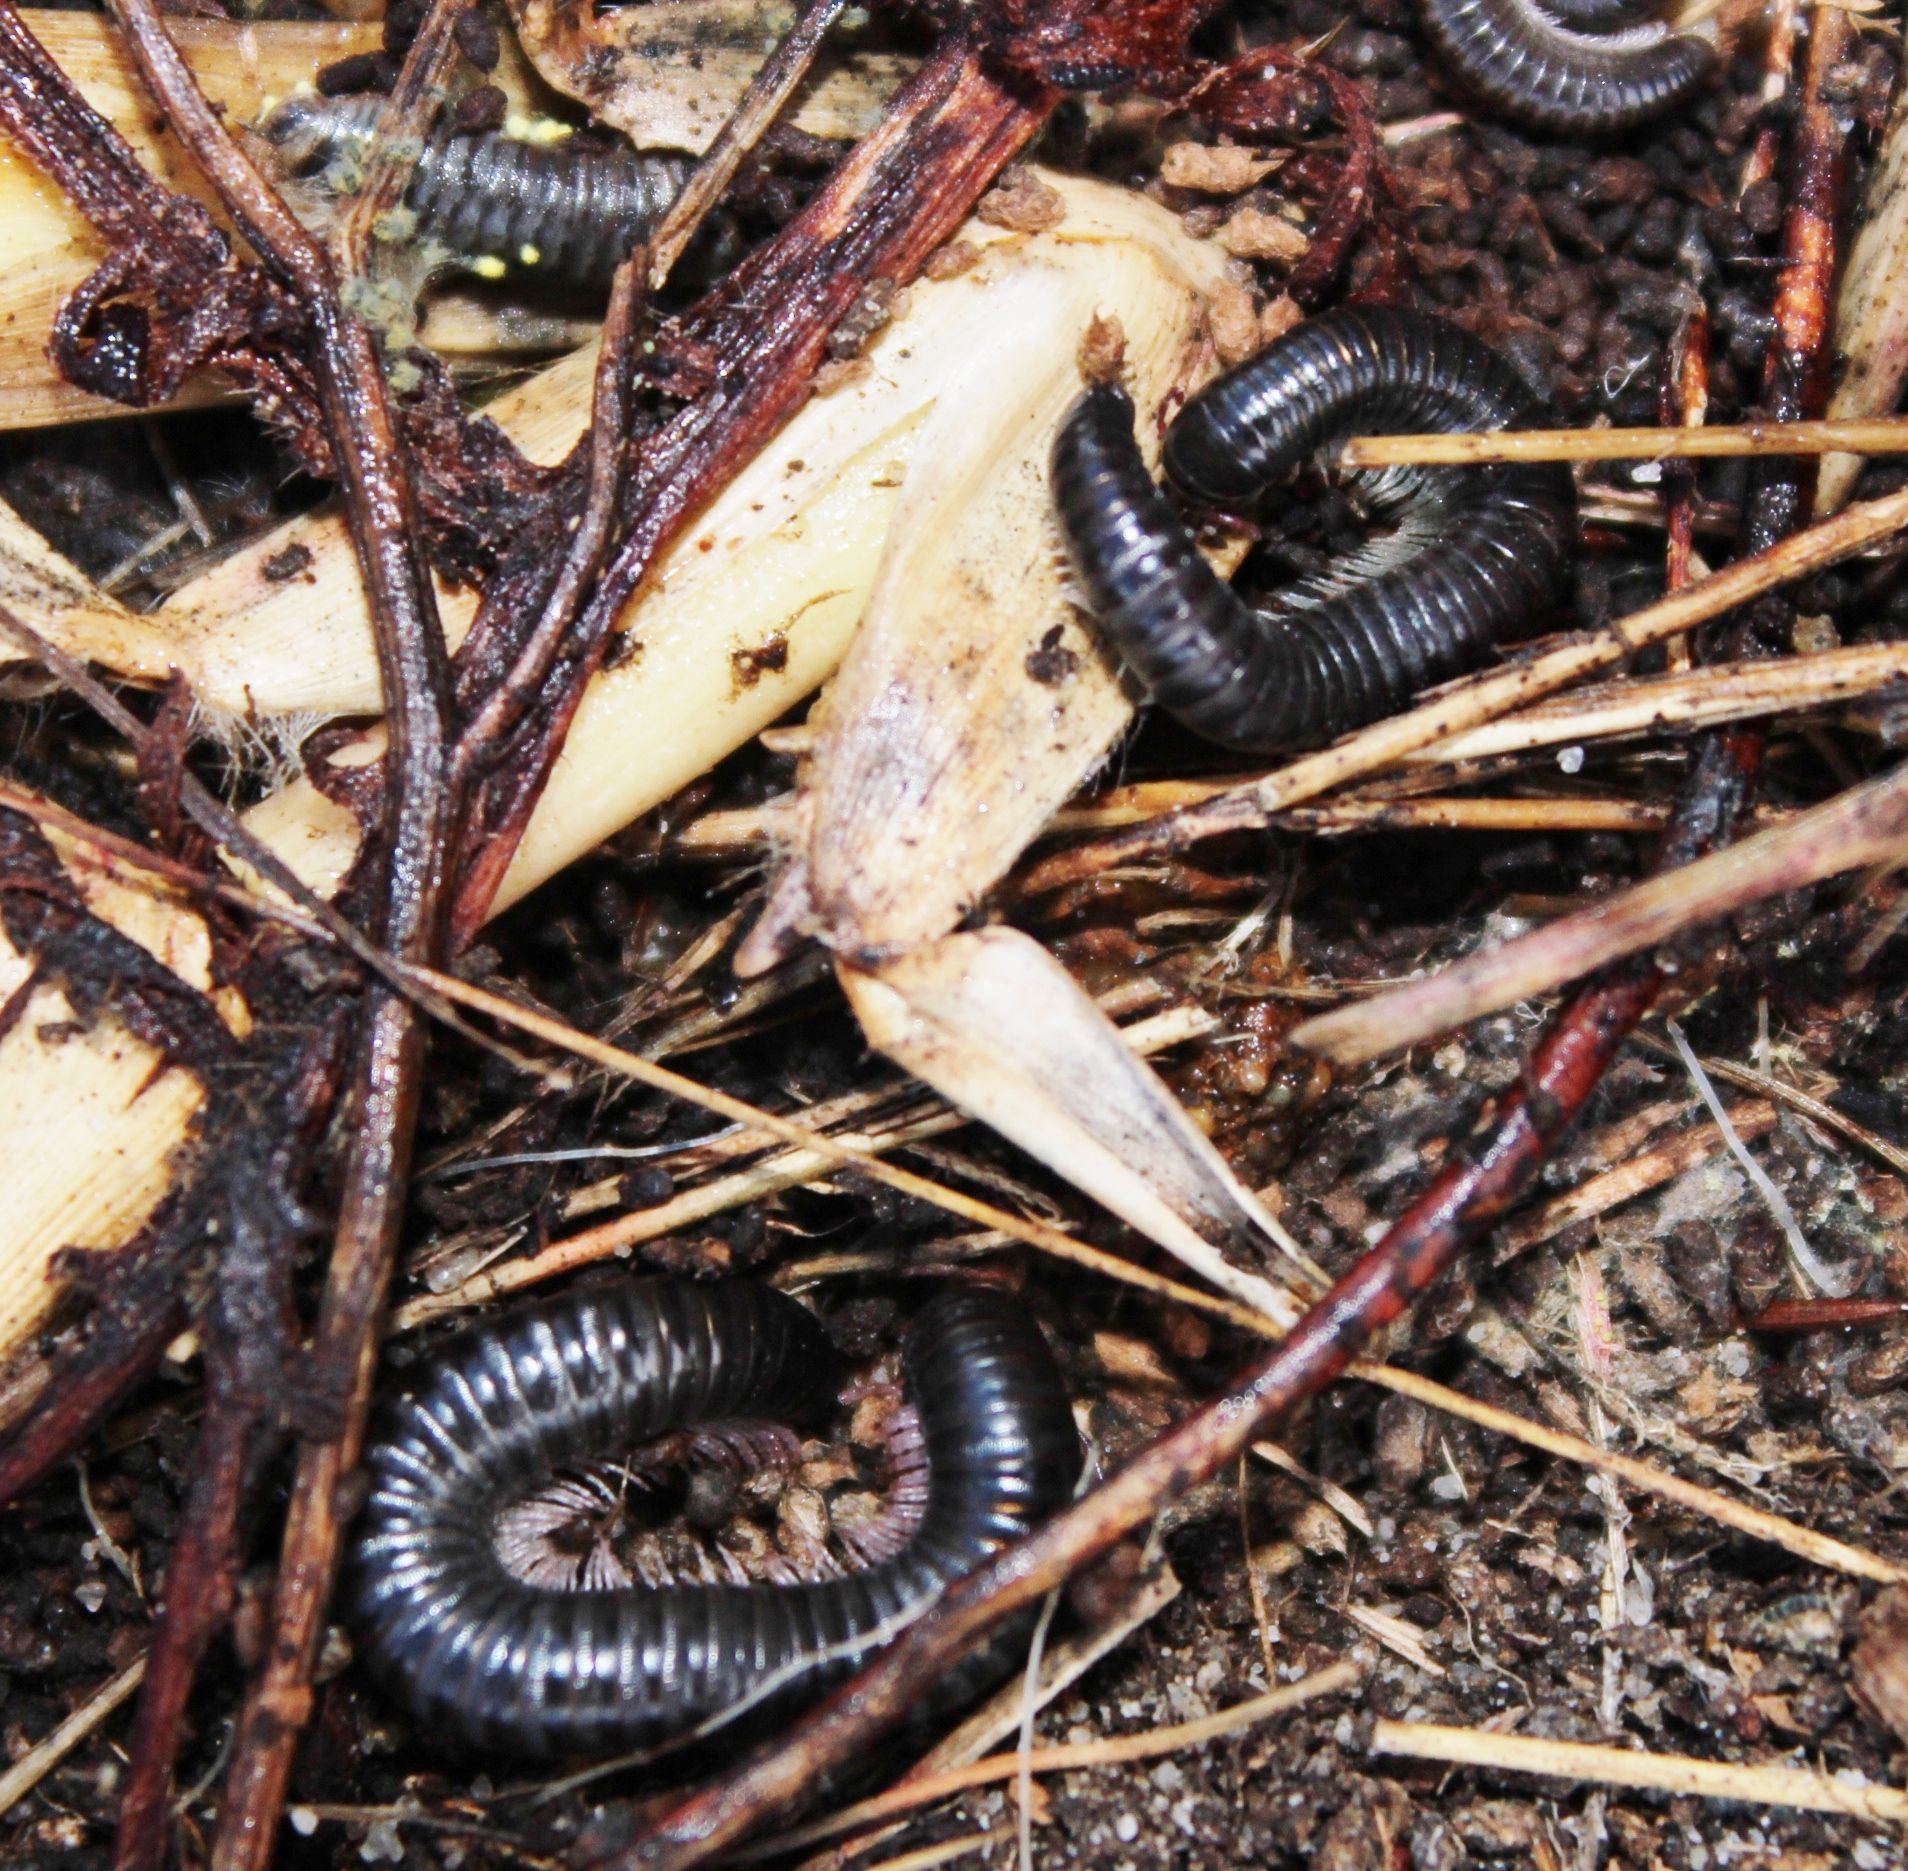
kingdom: Animalia
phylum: Arthropoda
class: Diplopoda
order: Julida
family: Julidae
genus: Ommatoiulus
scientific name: Ommatoiulus moreleti
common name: Portuguese millipede
